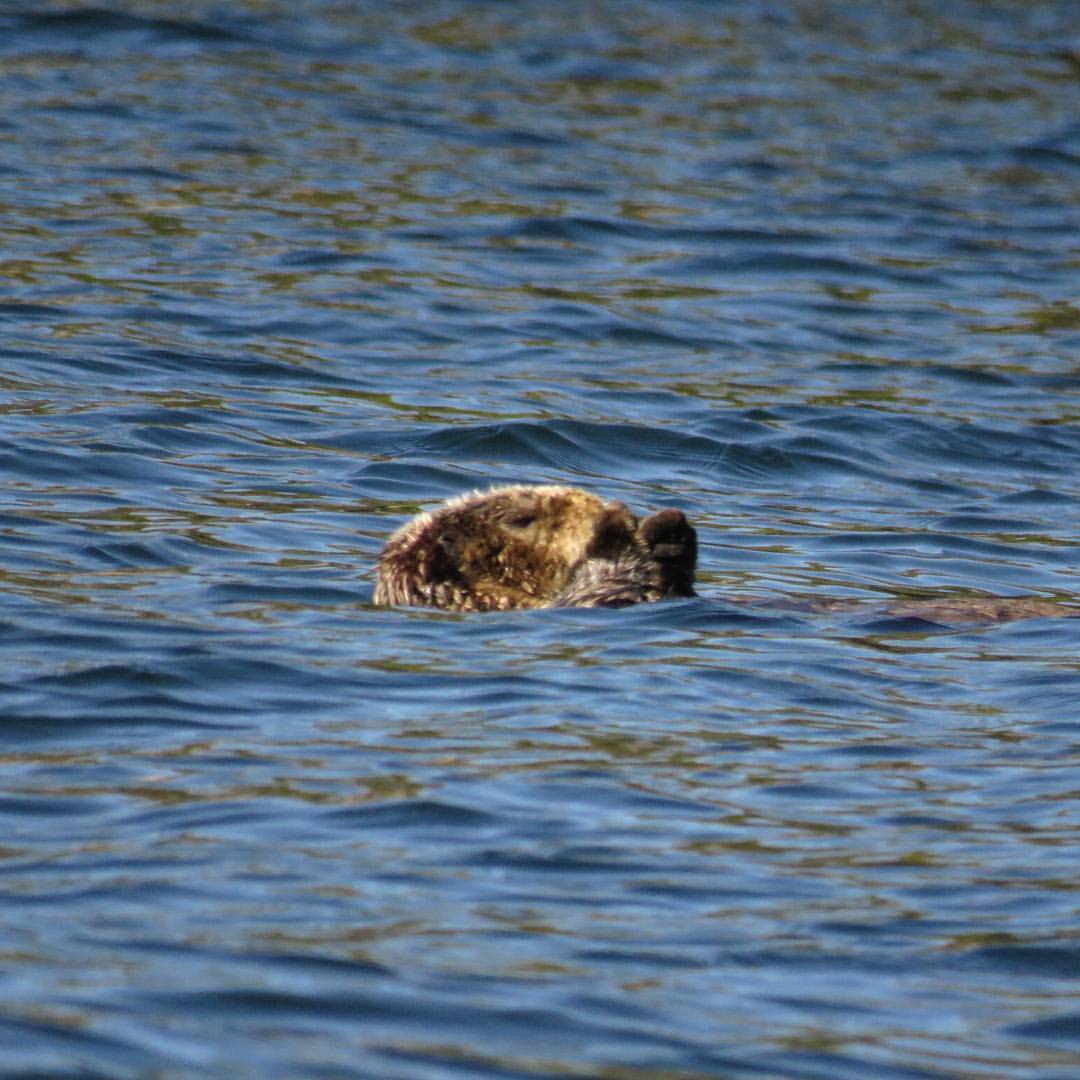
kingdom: Animalia
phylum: Chordata
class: Mammalia
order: Carnivora
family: Mustelidae
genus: Enhydra
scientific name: Enhydra lutris
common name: Sea otter
